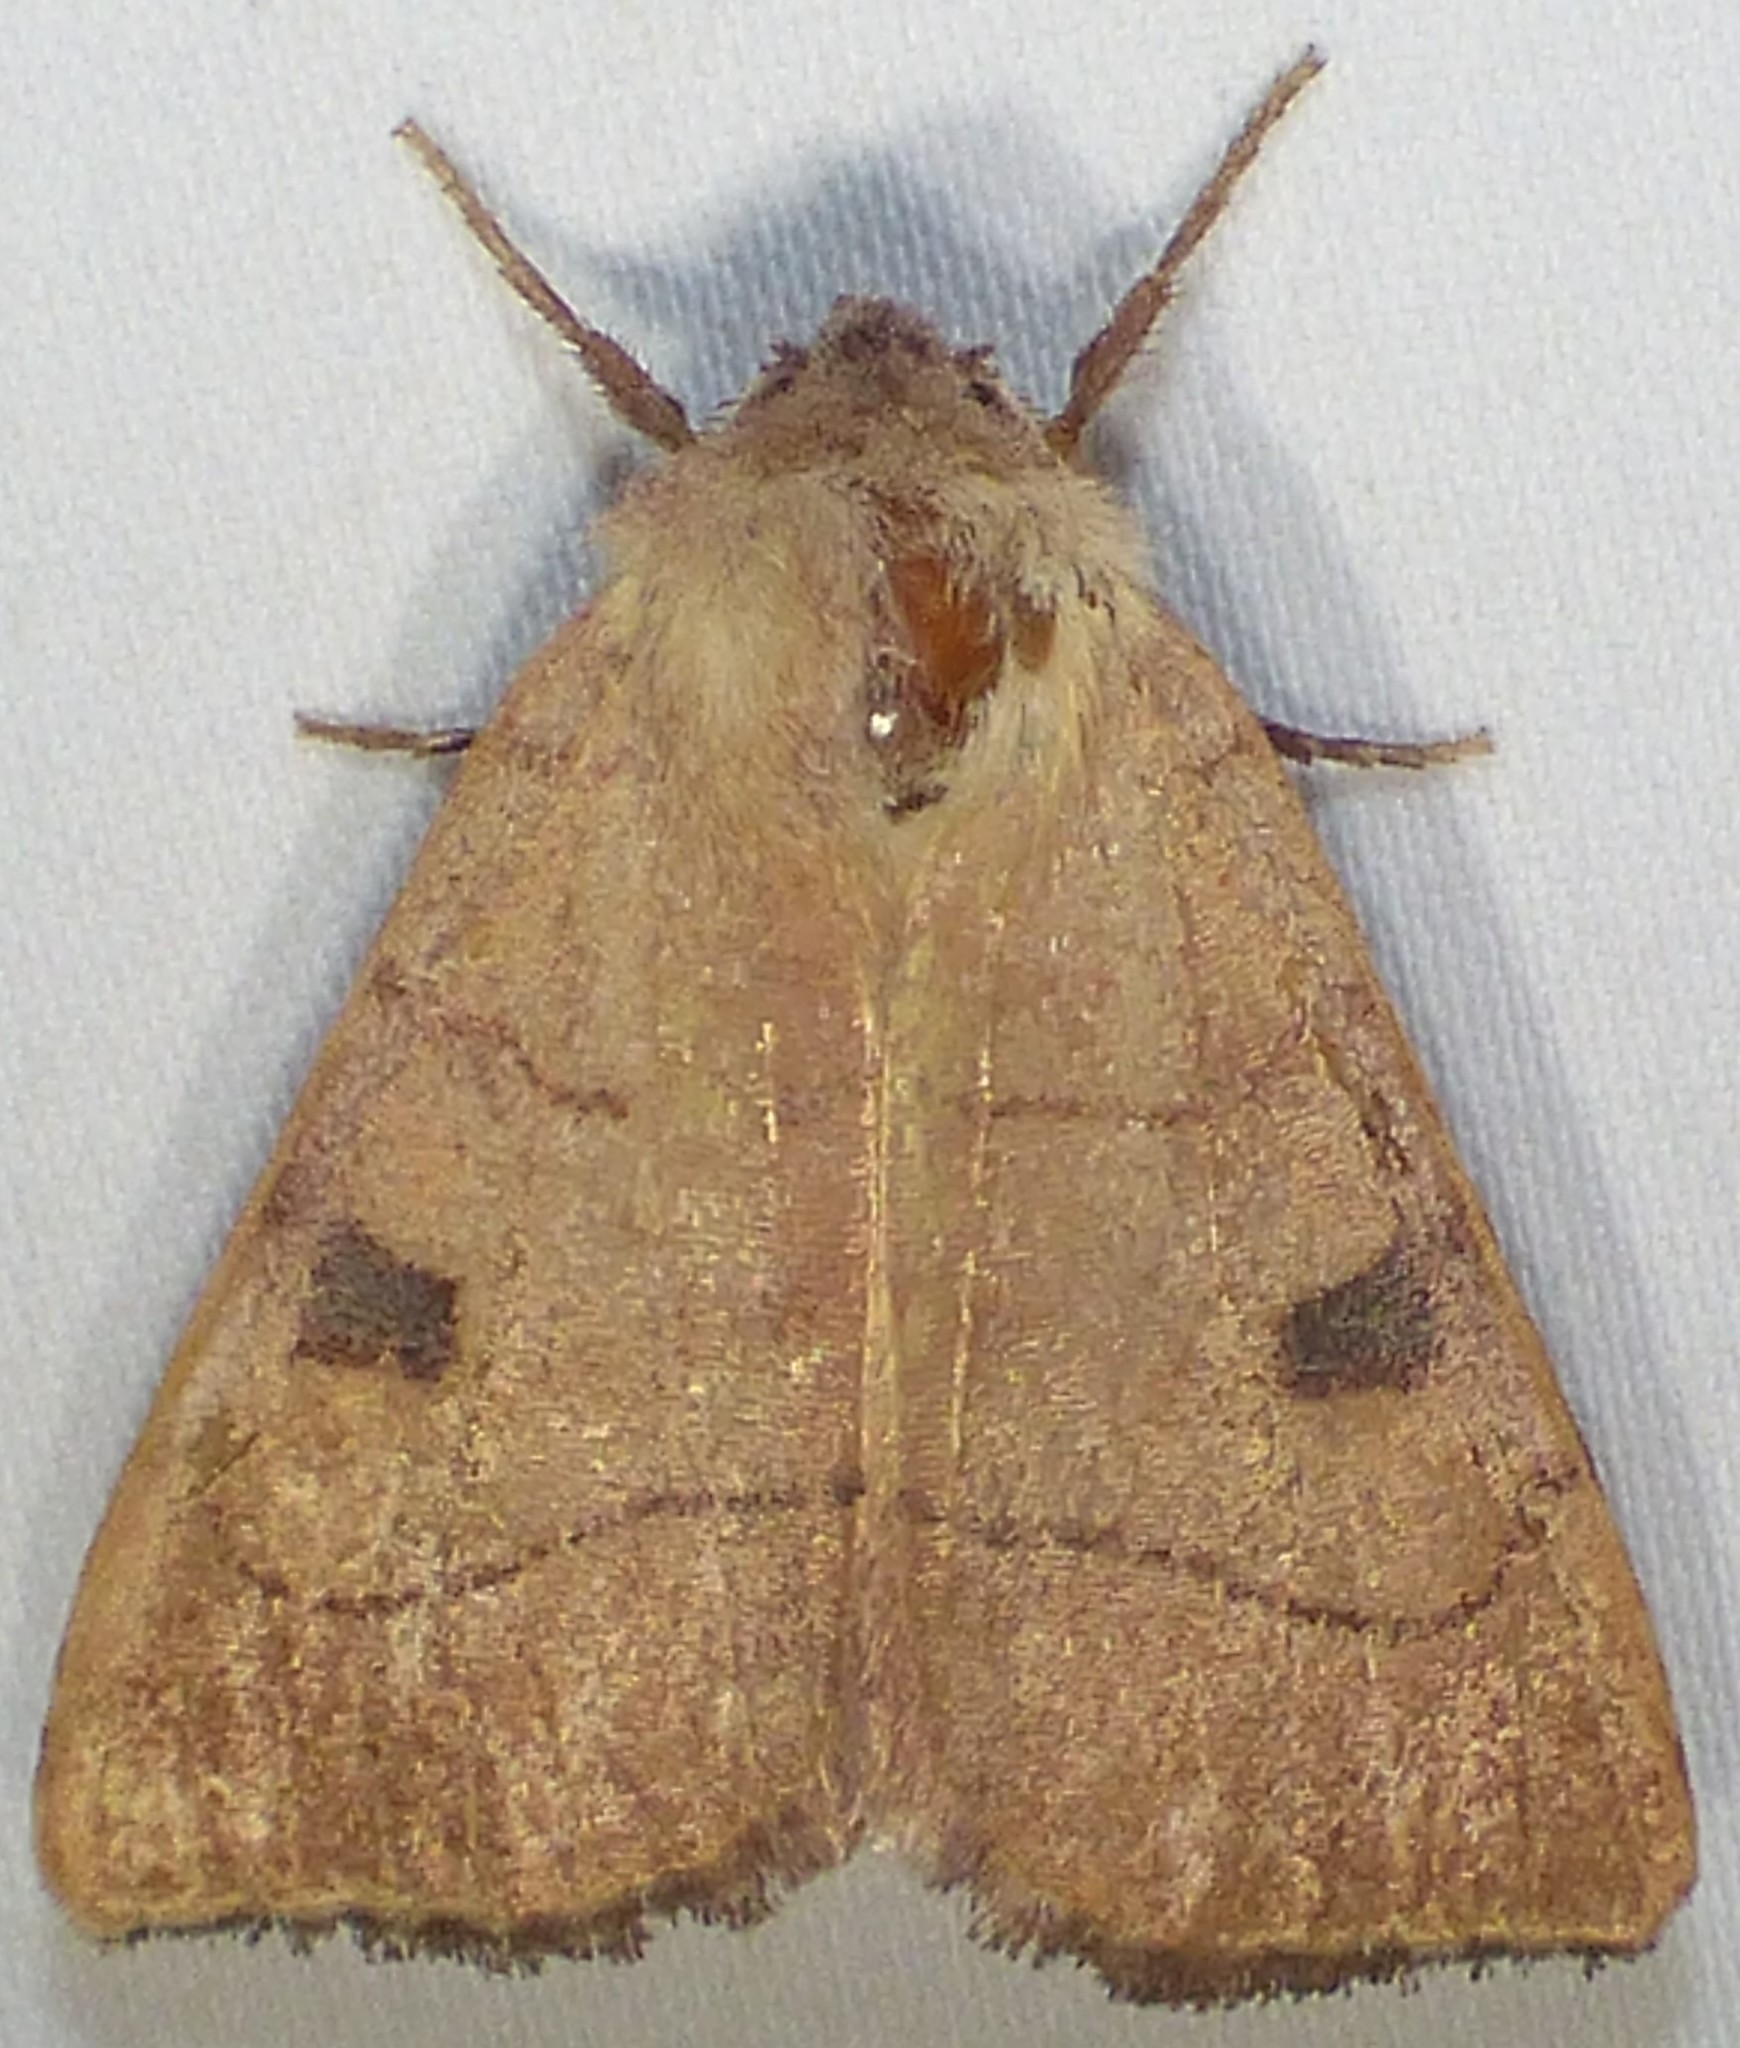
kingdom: Animalia
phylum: Arthropoda
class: Insecta
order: Lepidoptera
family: Noctuidae
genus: Choephora
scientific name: Choephora fungorum
